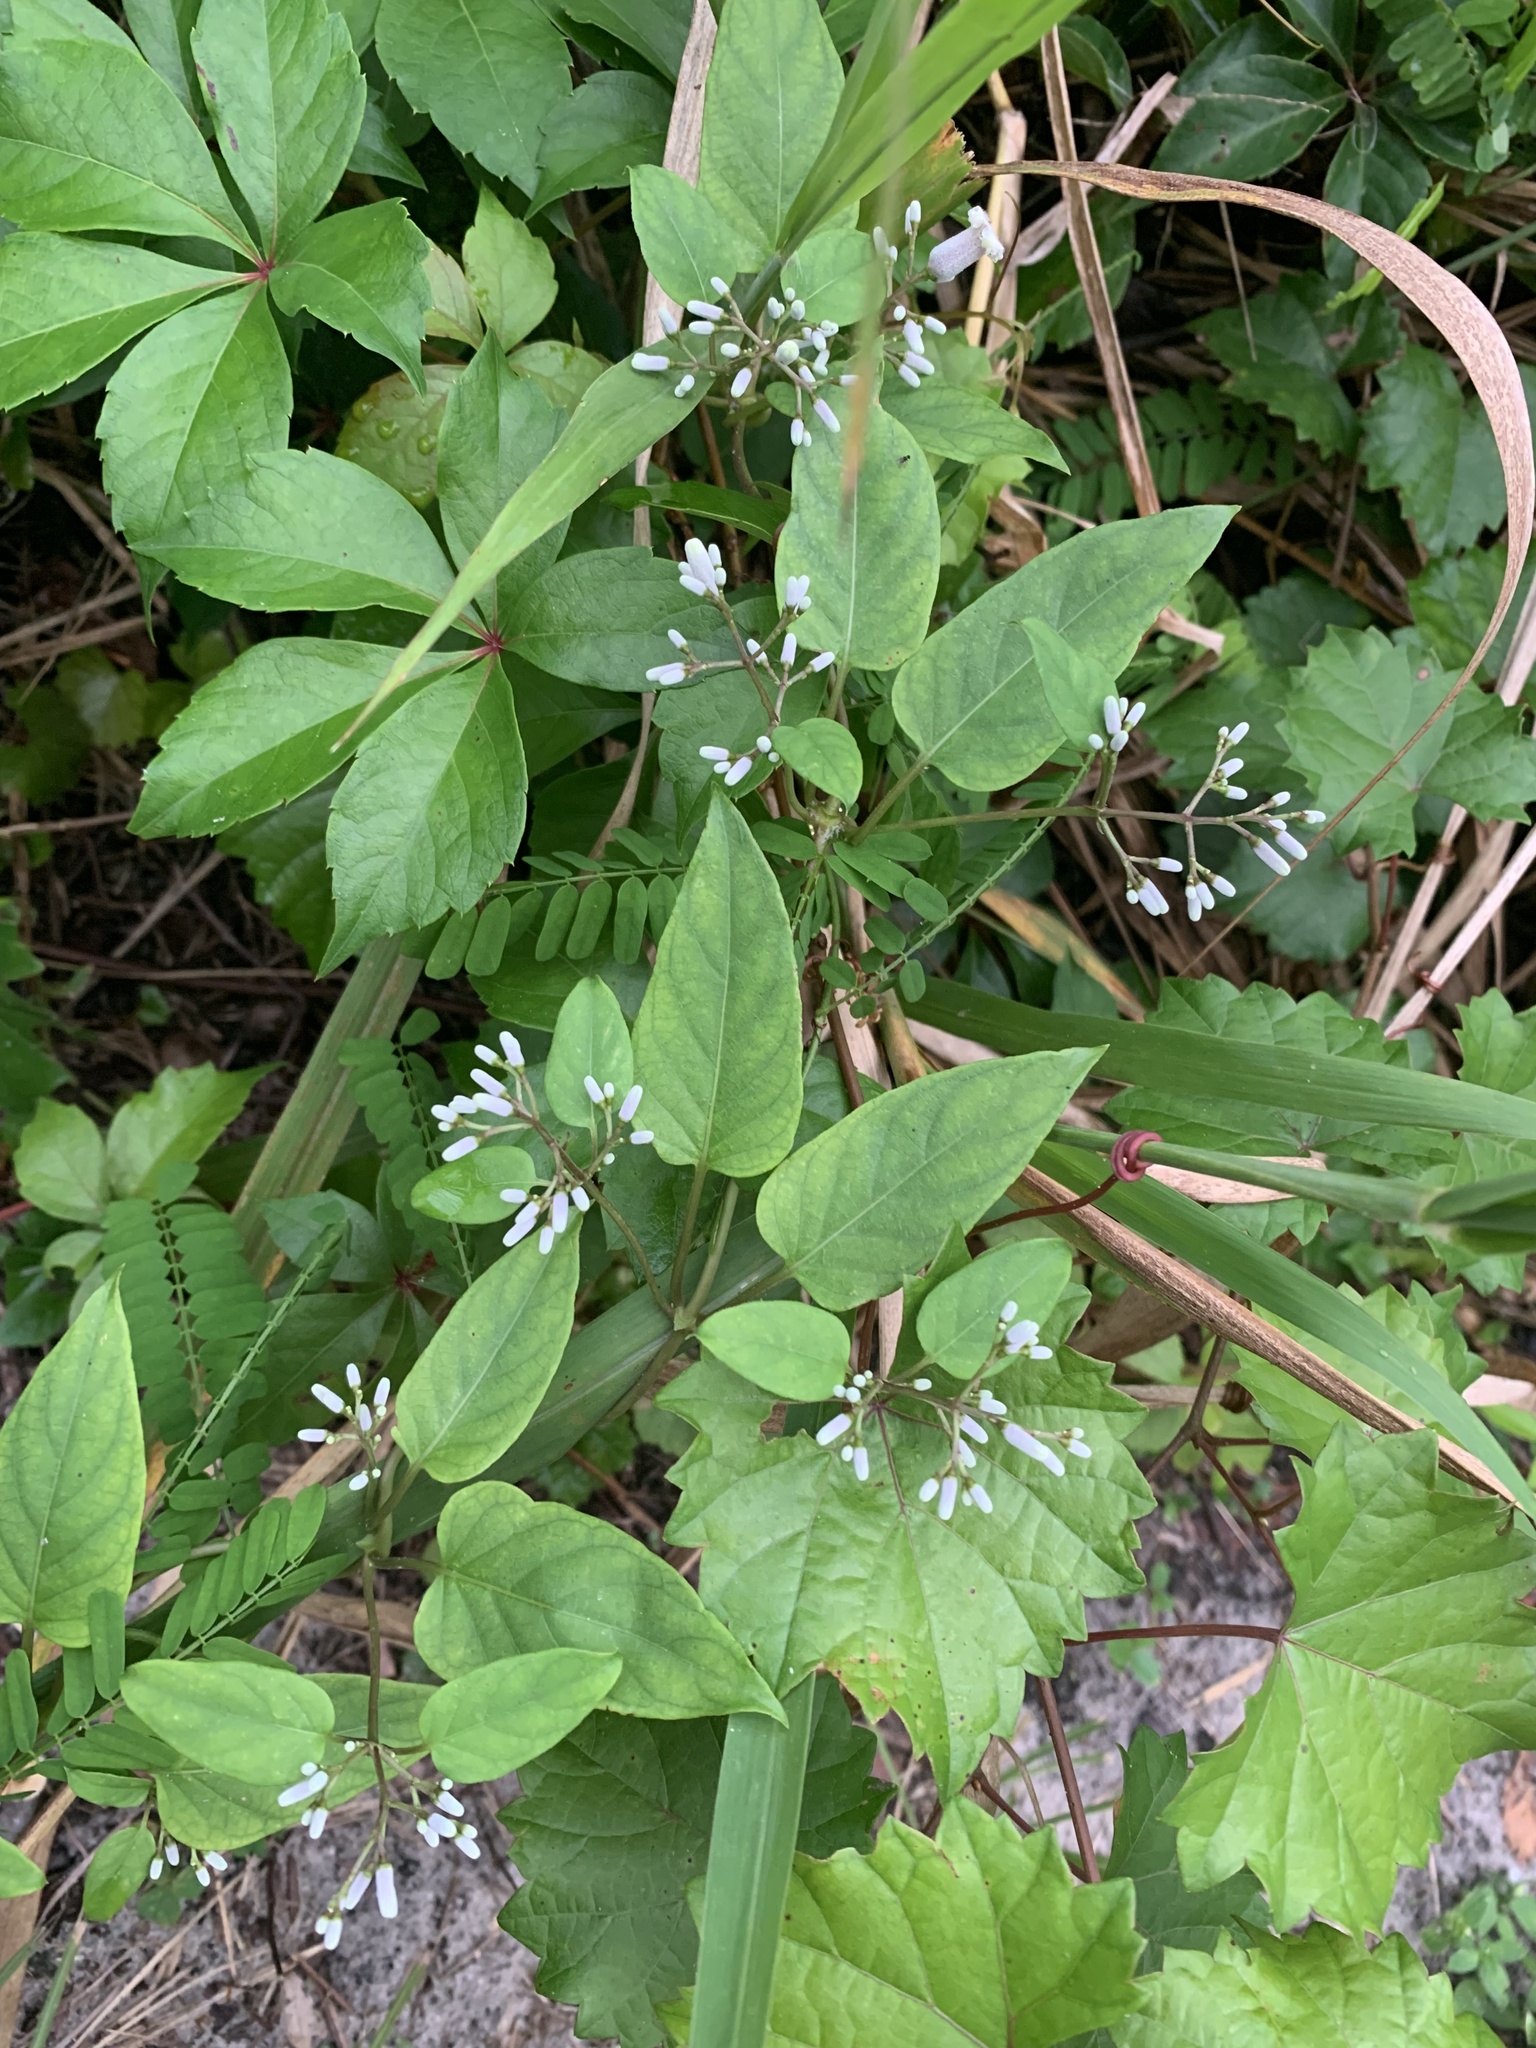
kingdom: Plantae
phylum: Tracheophyta
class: Magnoliopsida
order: Gentianales
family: Rubiaceae
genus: Paederia
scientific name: Paederia foetida
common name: Stinkvine
